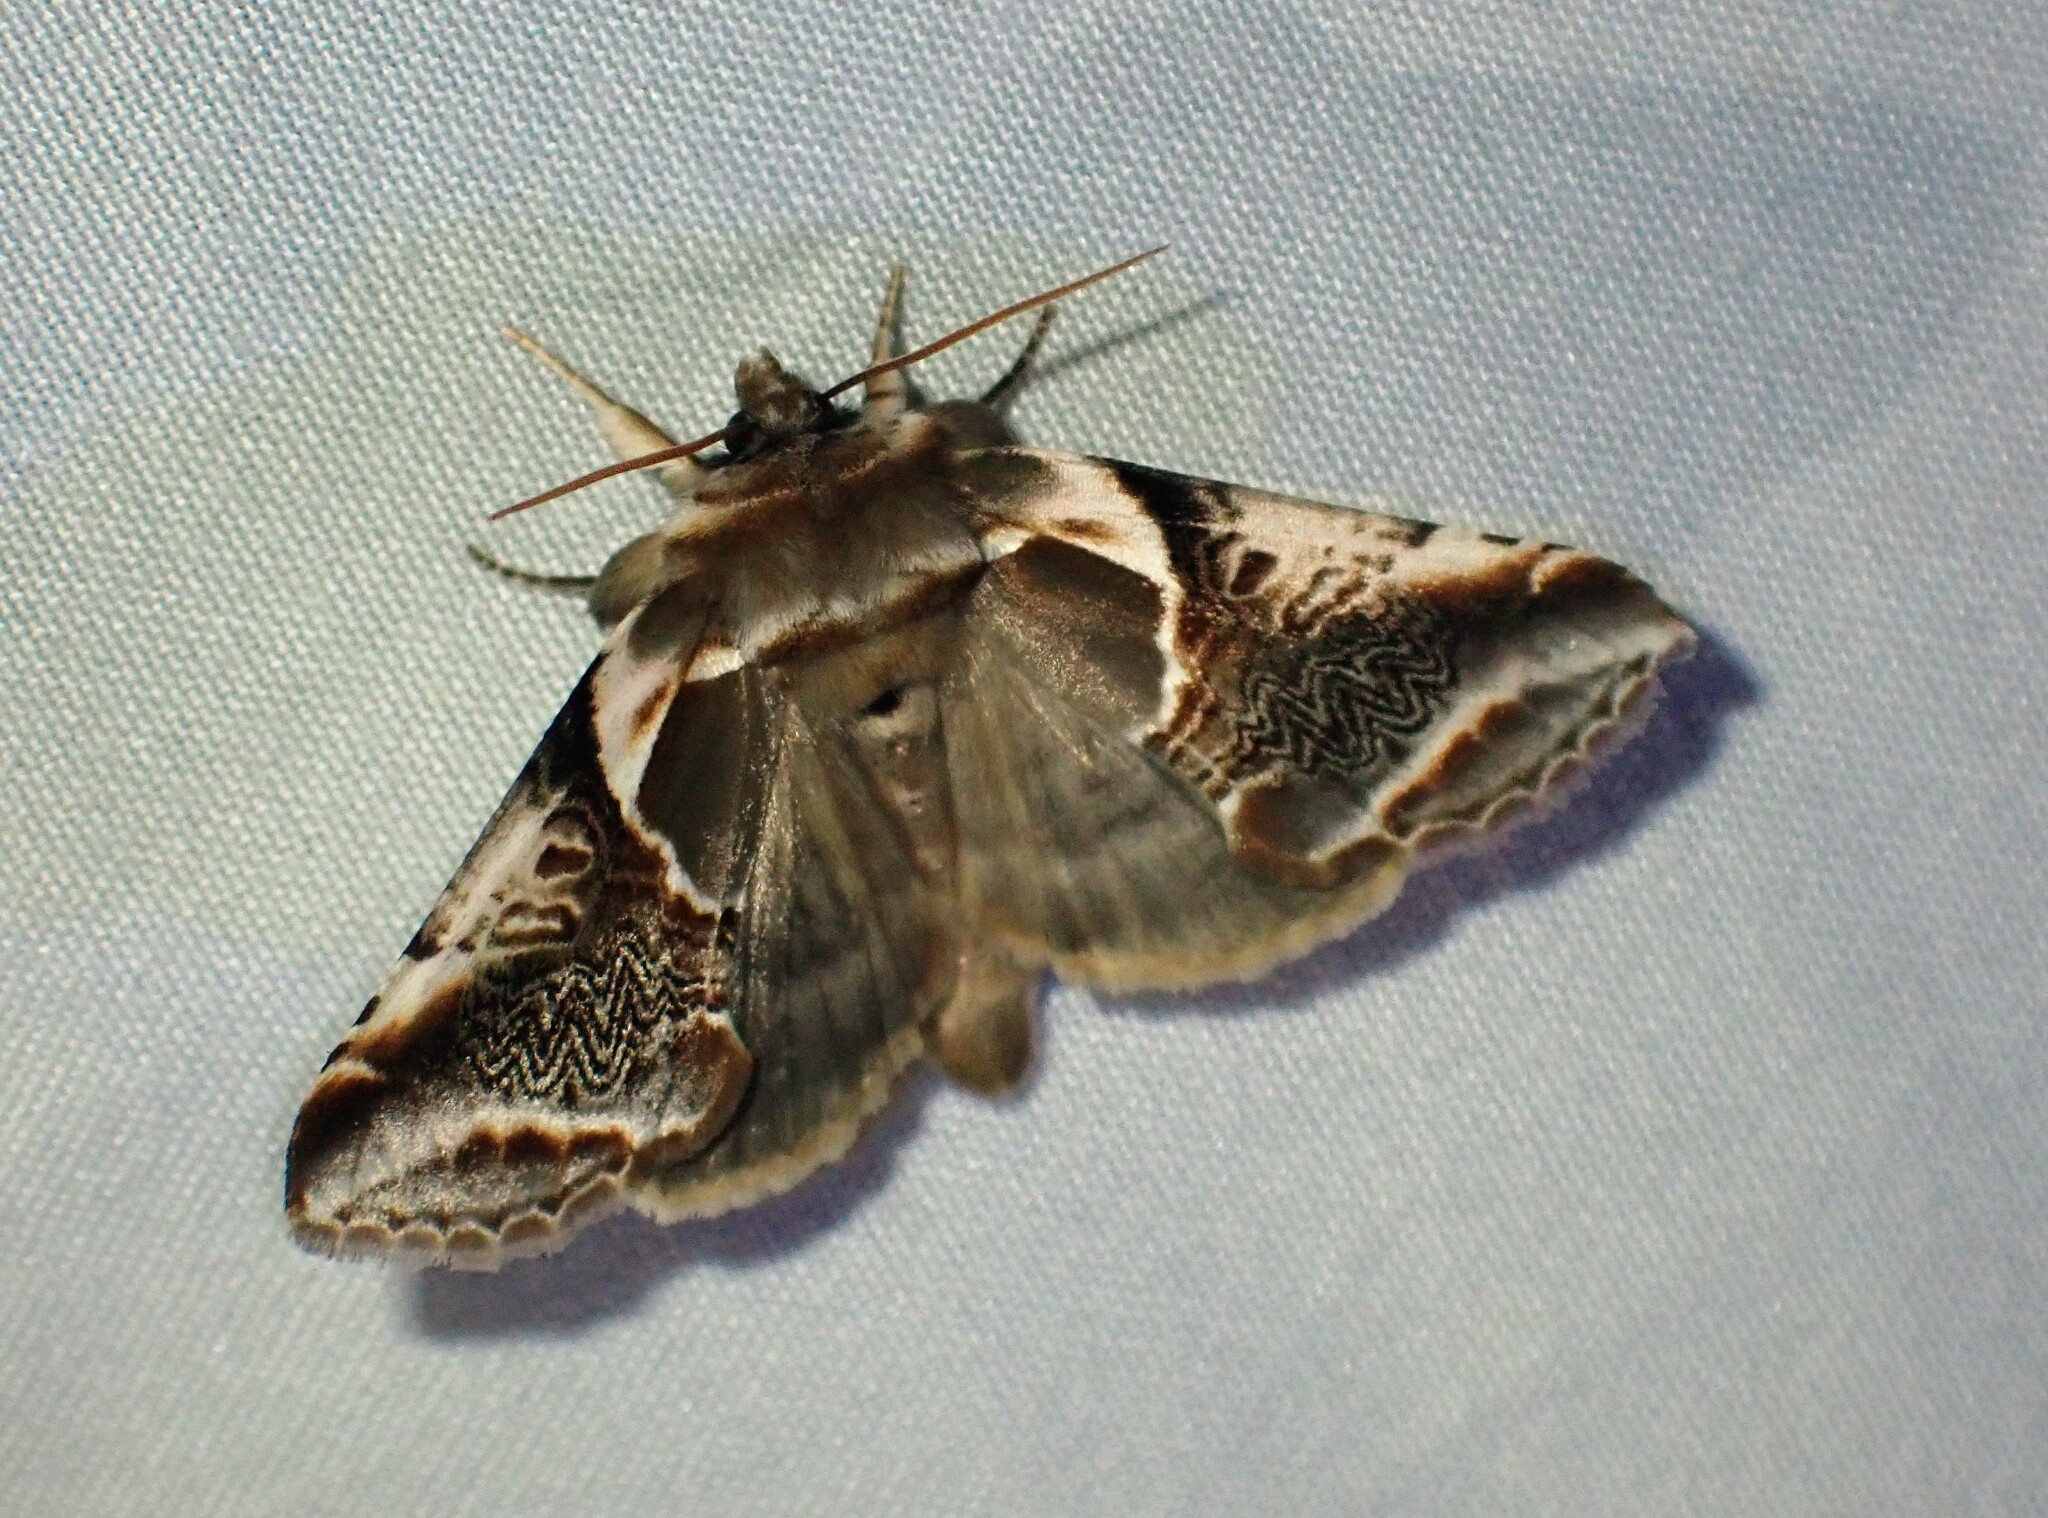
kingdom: Animalia
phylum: Arthropoda
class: Insecta
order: Lepidoptera
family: Drepanidae
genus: Habrosyne
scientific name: Habrosyne scripta
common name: Lettered habrosyne moth
